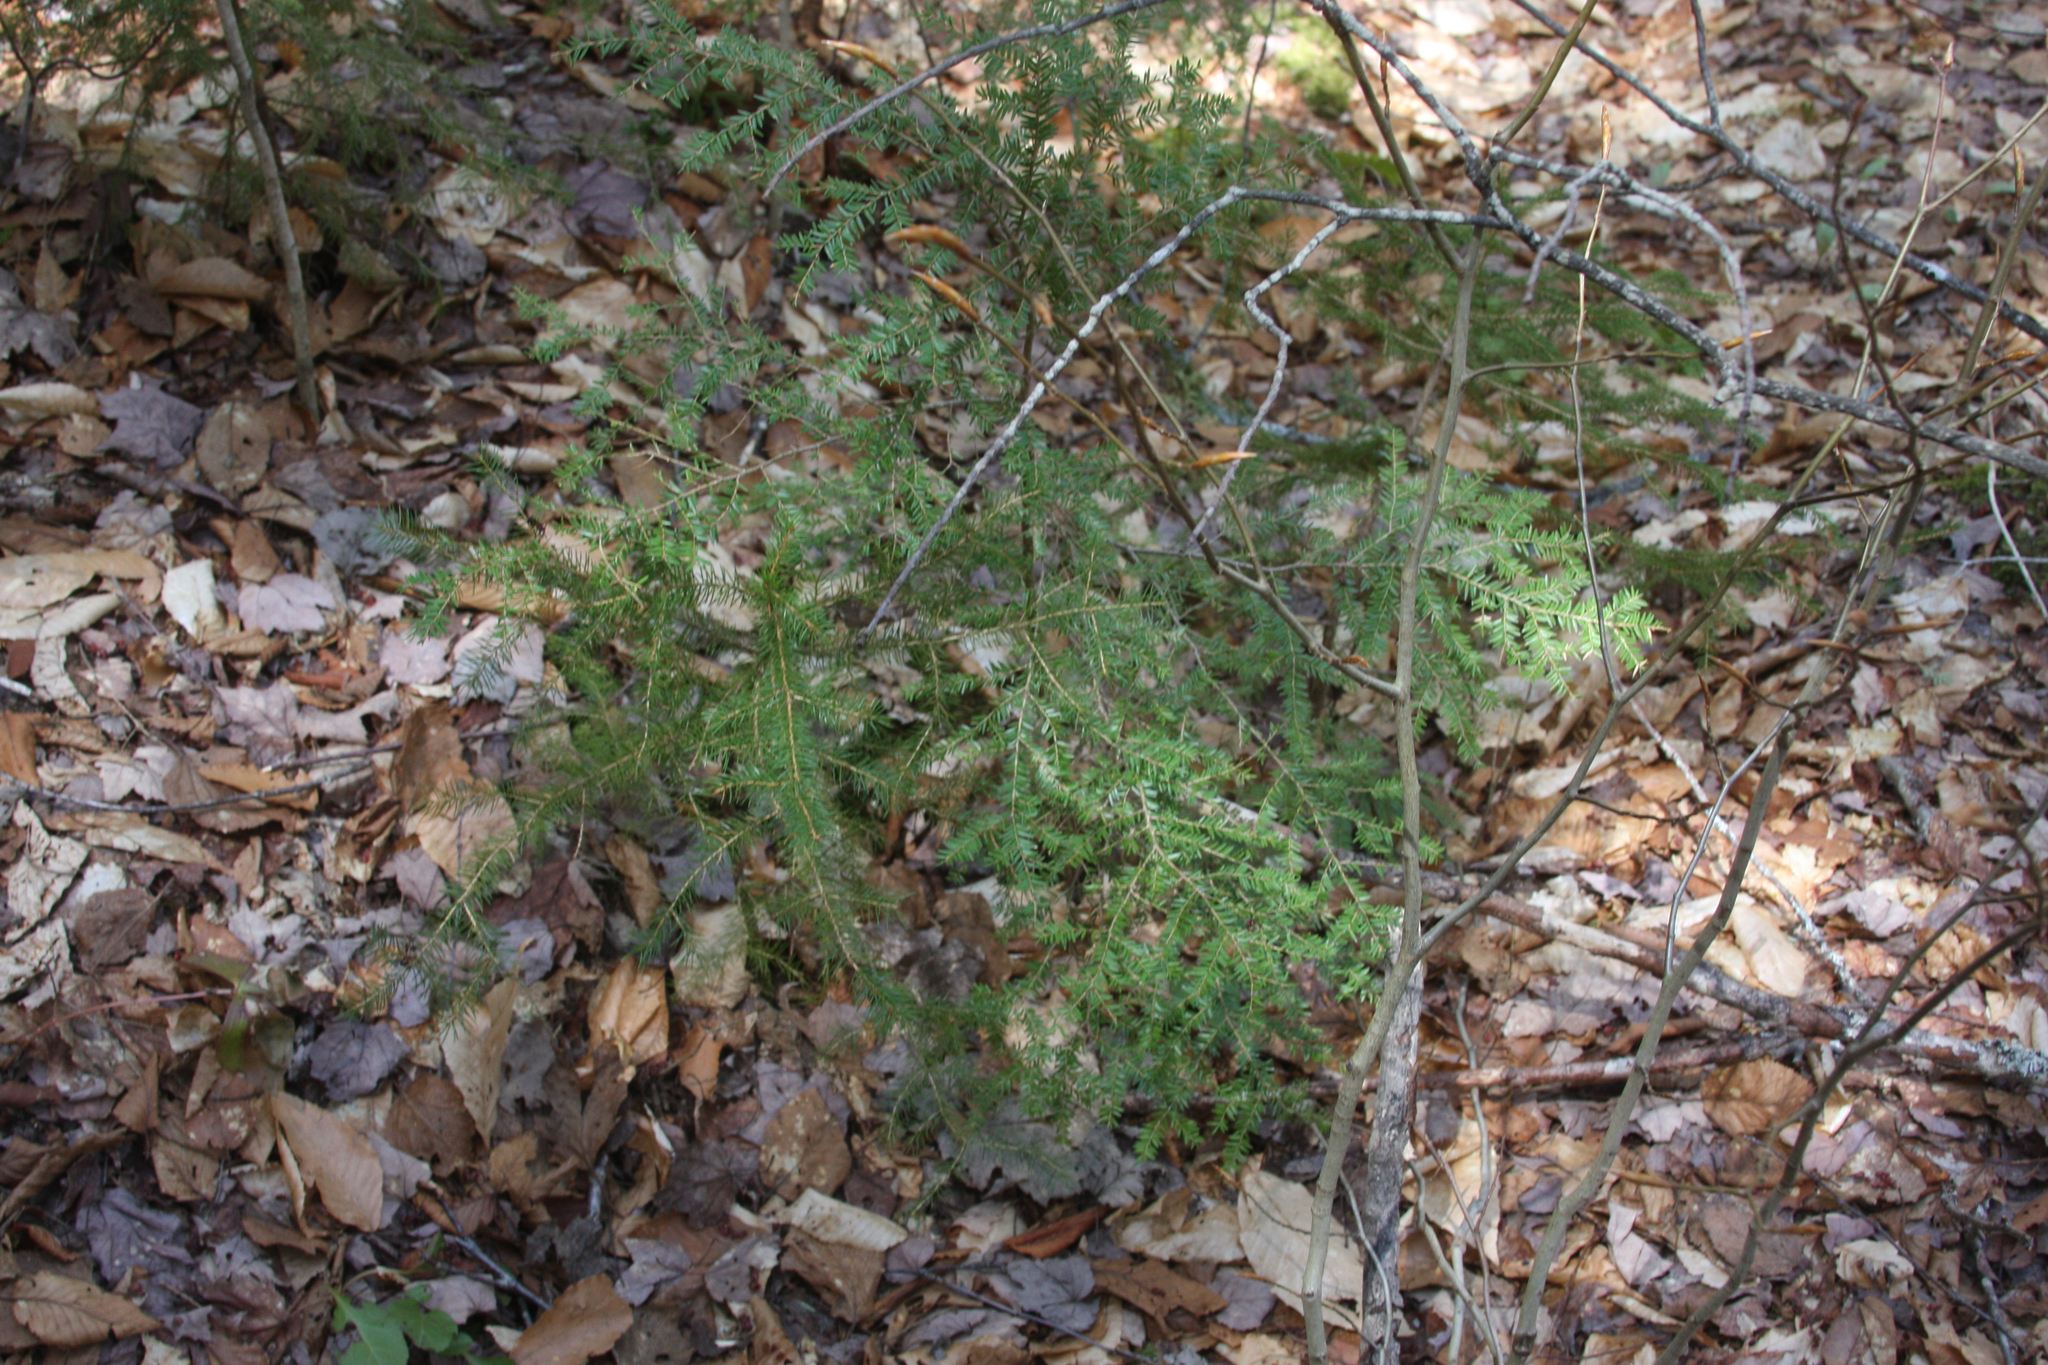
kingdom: Plantae
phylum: Tracheophyta
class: Pinopsida
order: Pinales
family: Pinaceae
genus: Tsuga
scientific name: Tsuga canadensis
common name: Eastern hemlock
